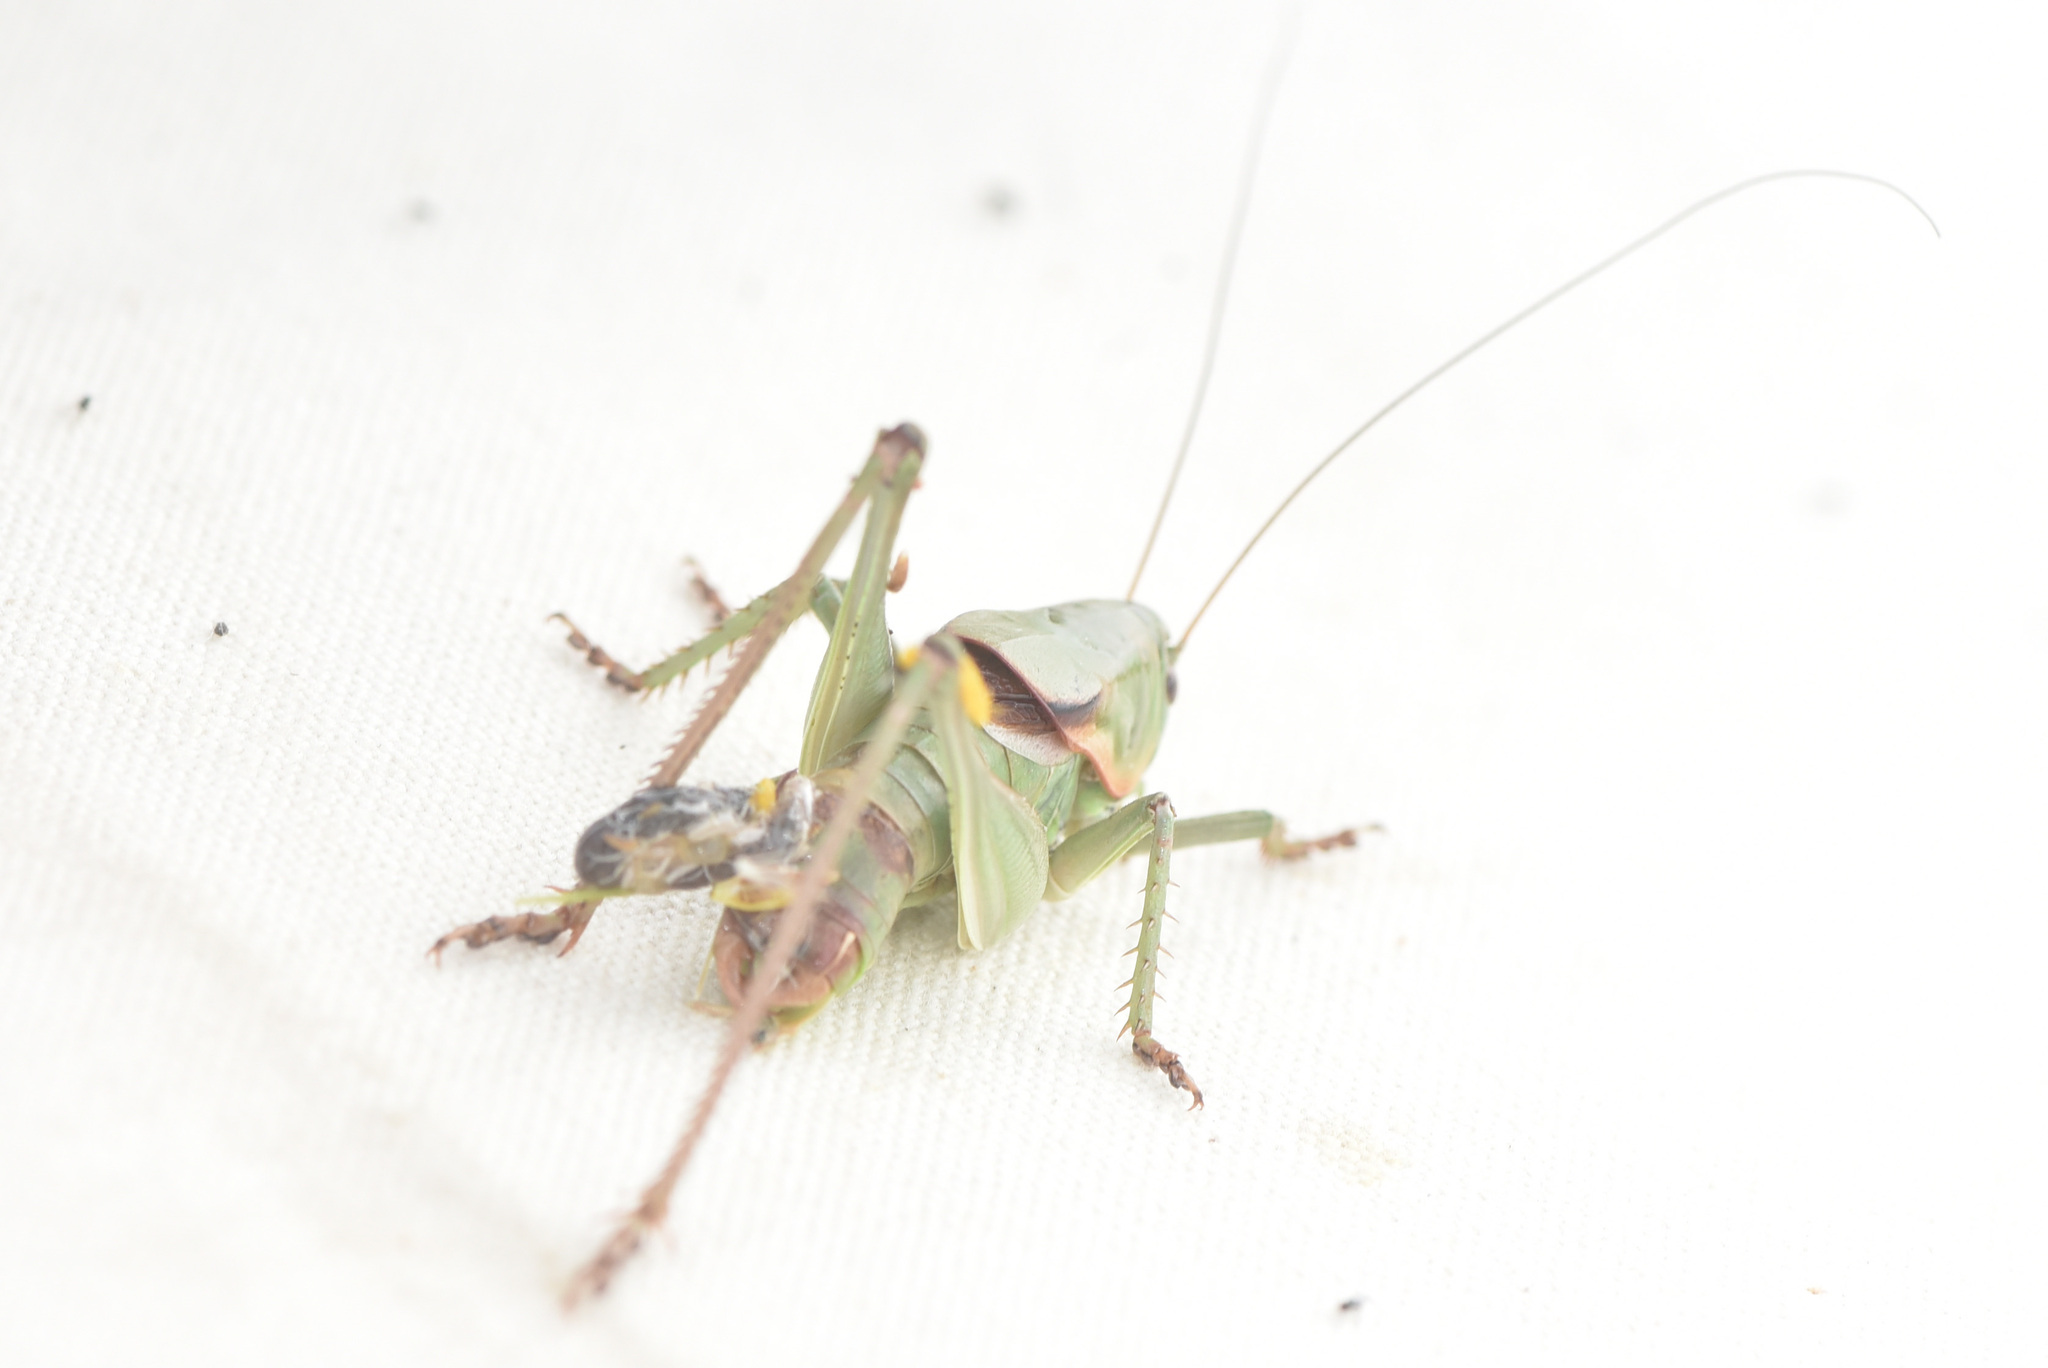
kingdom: Animalia
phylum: Arthropoda
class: Insecta
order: Orthoptera
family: Tettigoniidae
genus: Anabrus
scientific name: Anabrus longipes
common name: Long-legged anabrus
